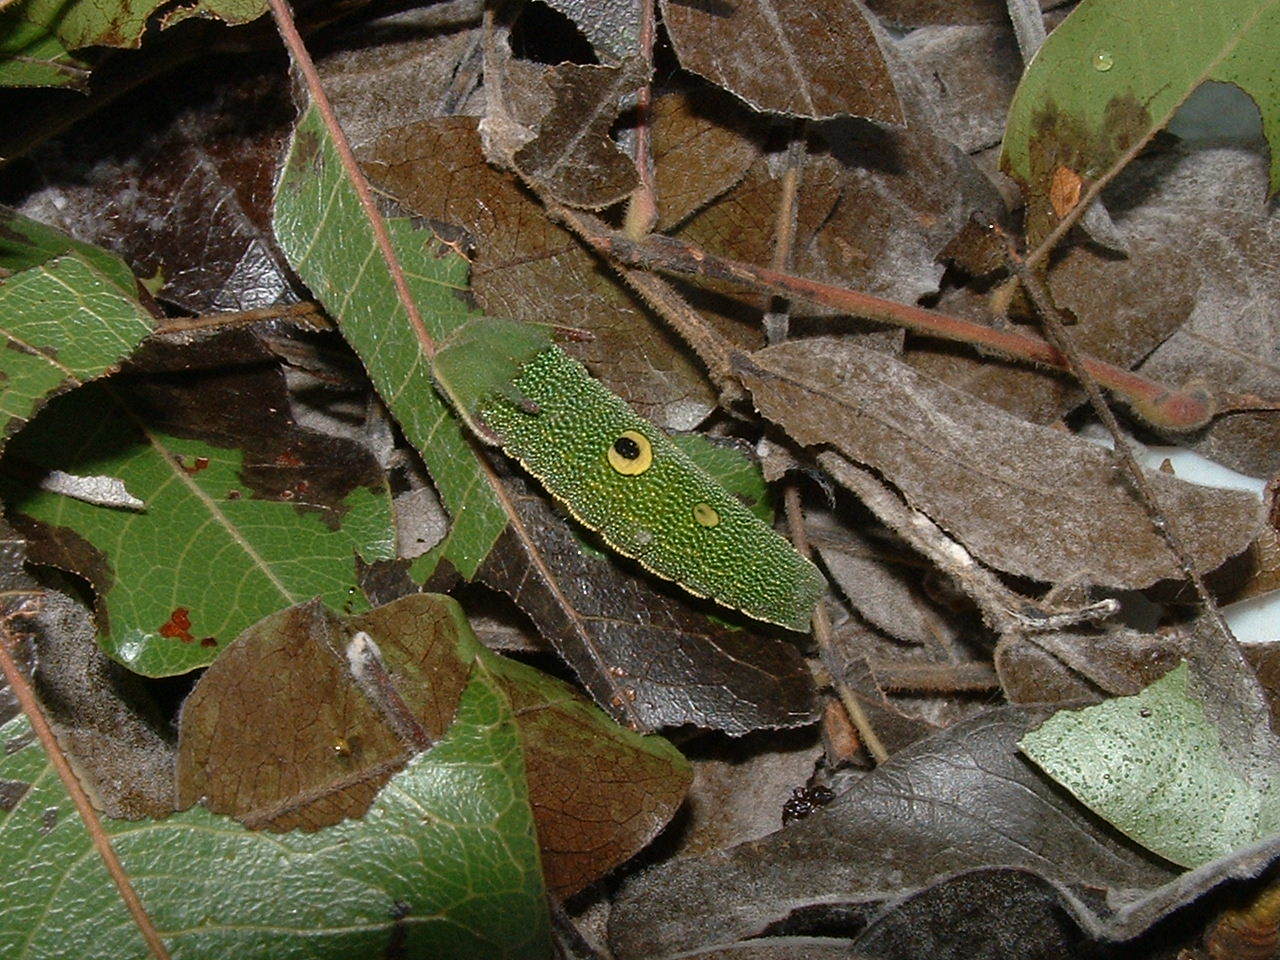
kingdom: Animalia
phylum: Arthropoda
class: Insecta
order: Lepidoptera
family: Nymphalidae
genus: Charaxes
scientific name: Charaxes candiope
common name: Green-veined charaxes
